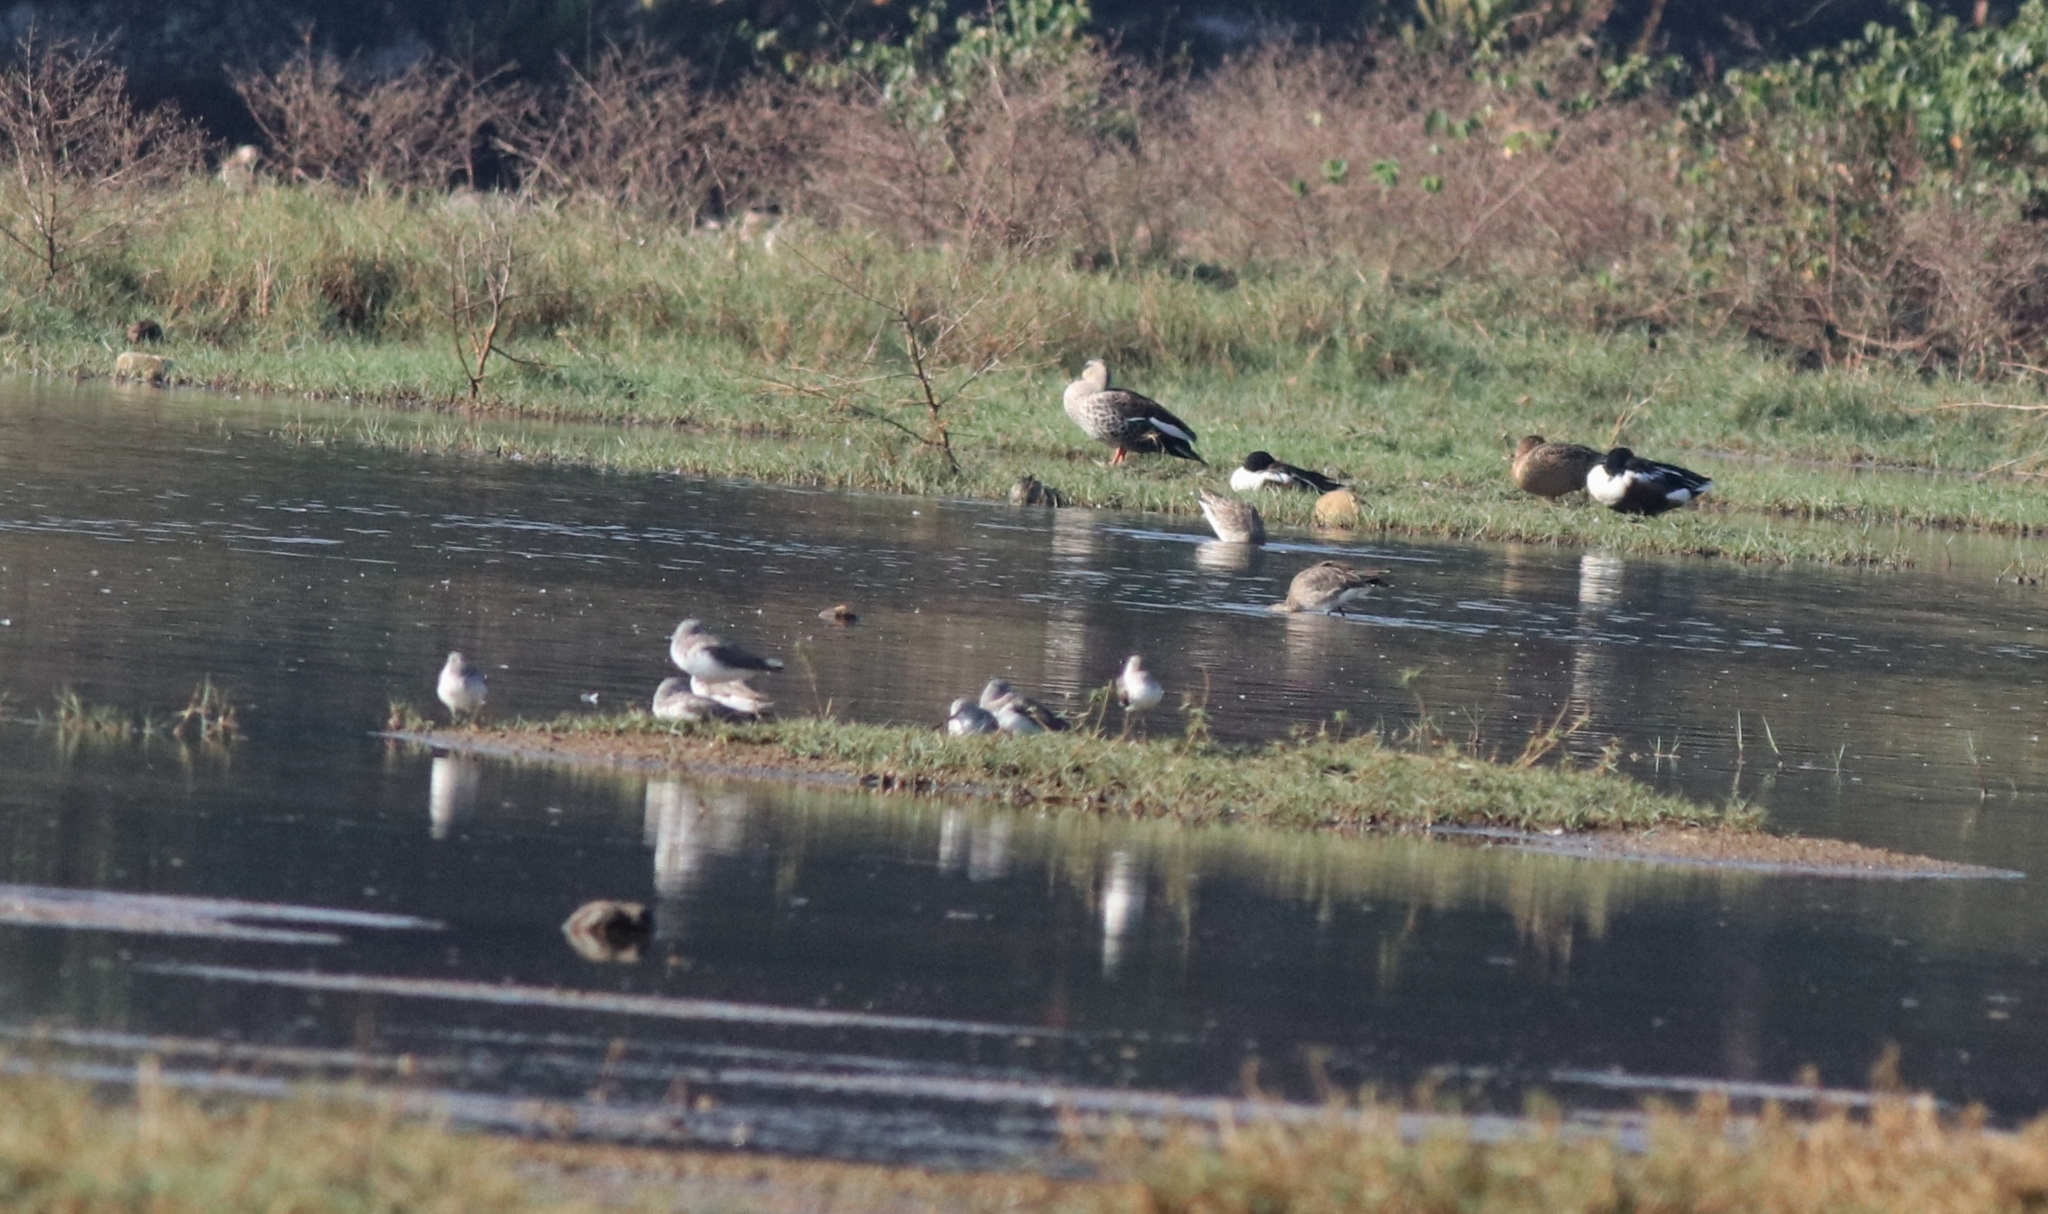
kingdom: Animalia
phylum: Chordata
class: Aves
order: Anseriformes
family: Anatidae
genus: Spatula
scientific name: Spatula clypeata
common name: Northern shoveler
